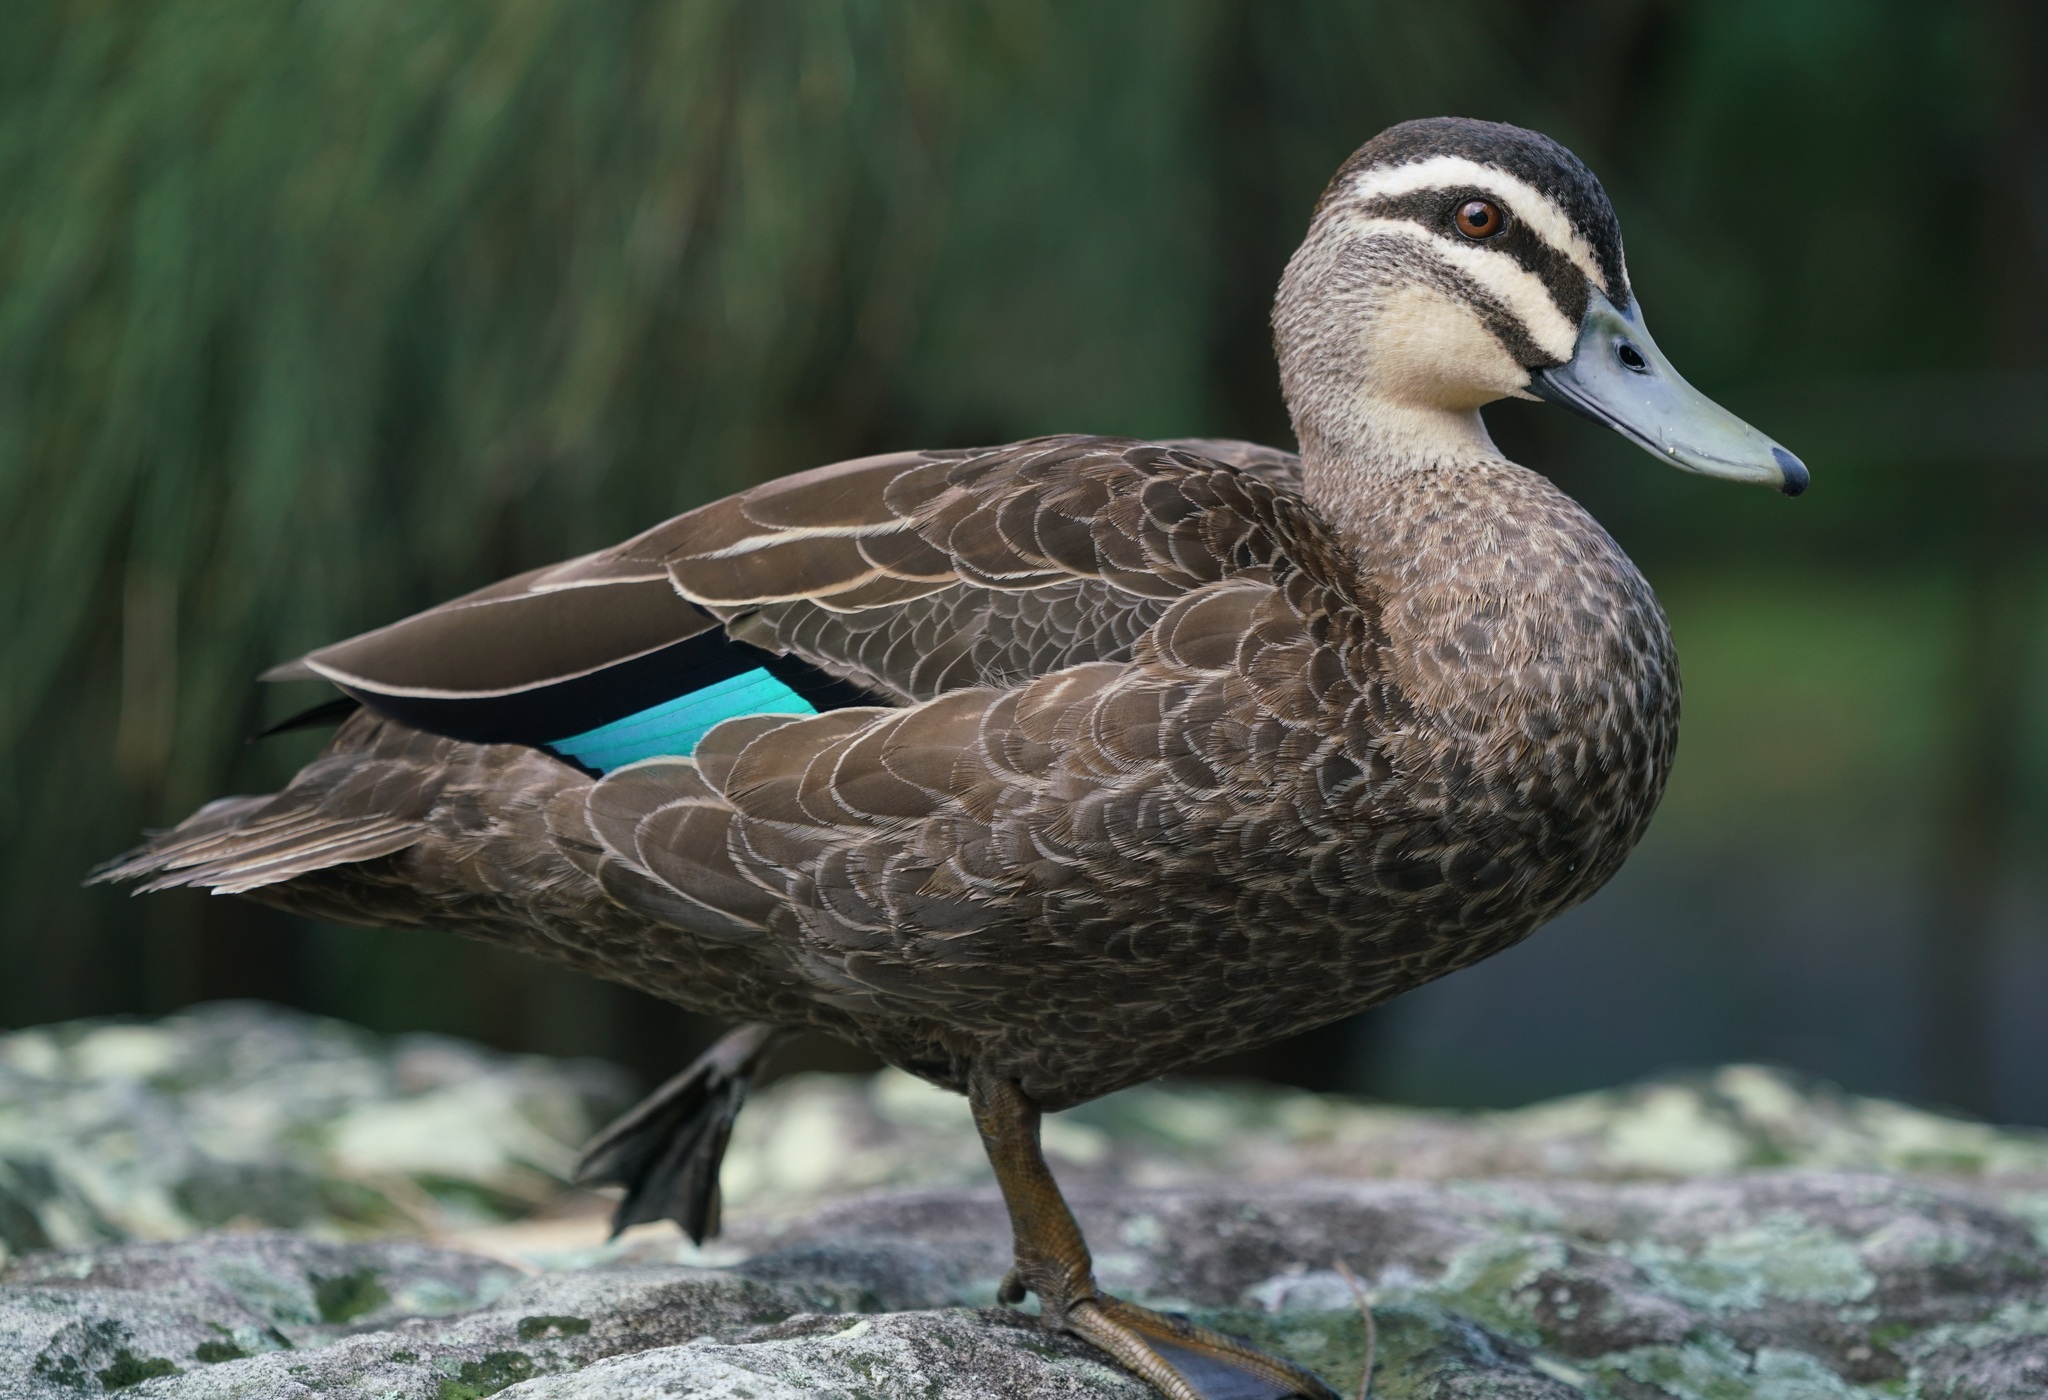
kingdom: Animalia
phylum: Chordata
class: Aves
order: Anseriformes
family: Anatidae
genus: Anas
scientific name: Anas superciliosa
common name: Pacific black duck
